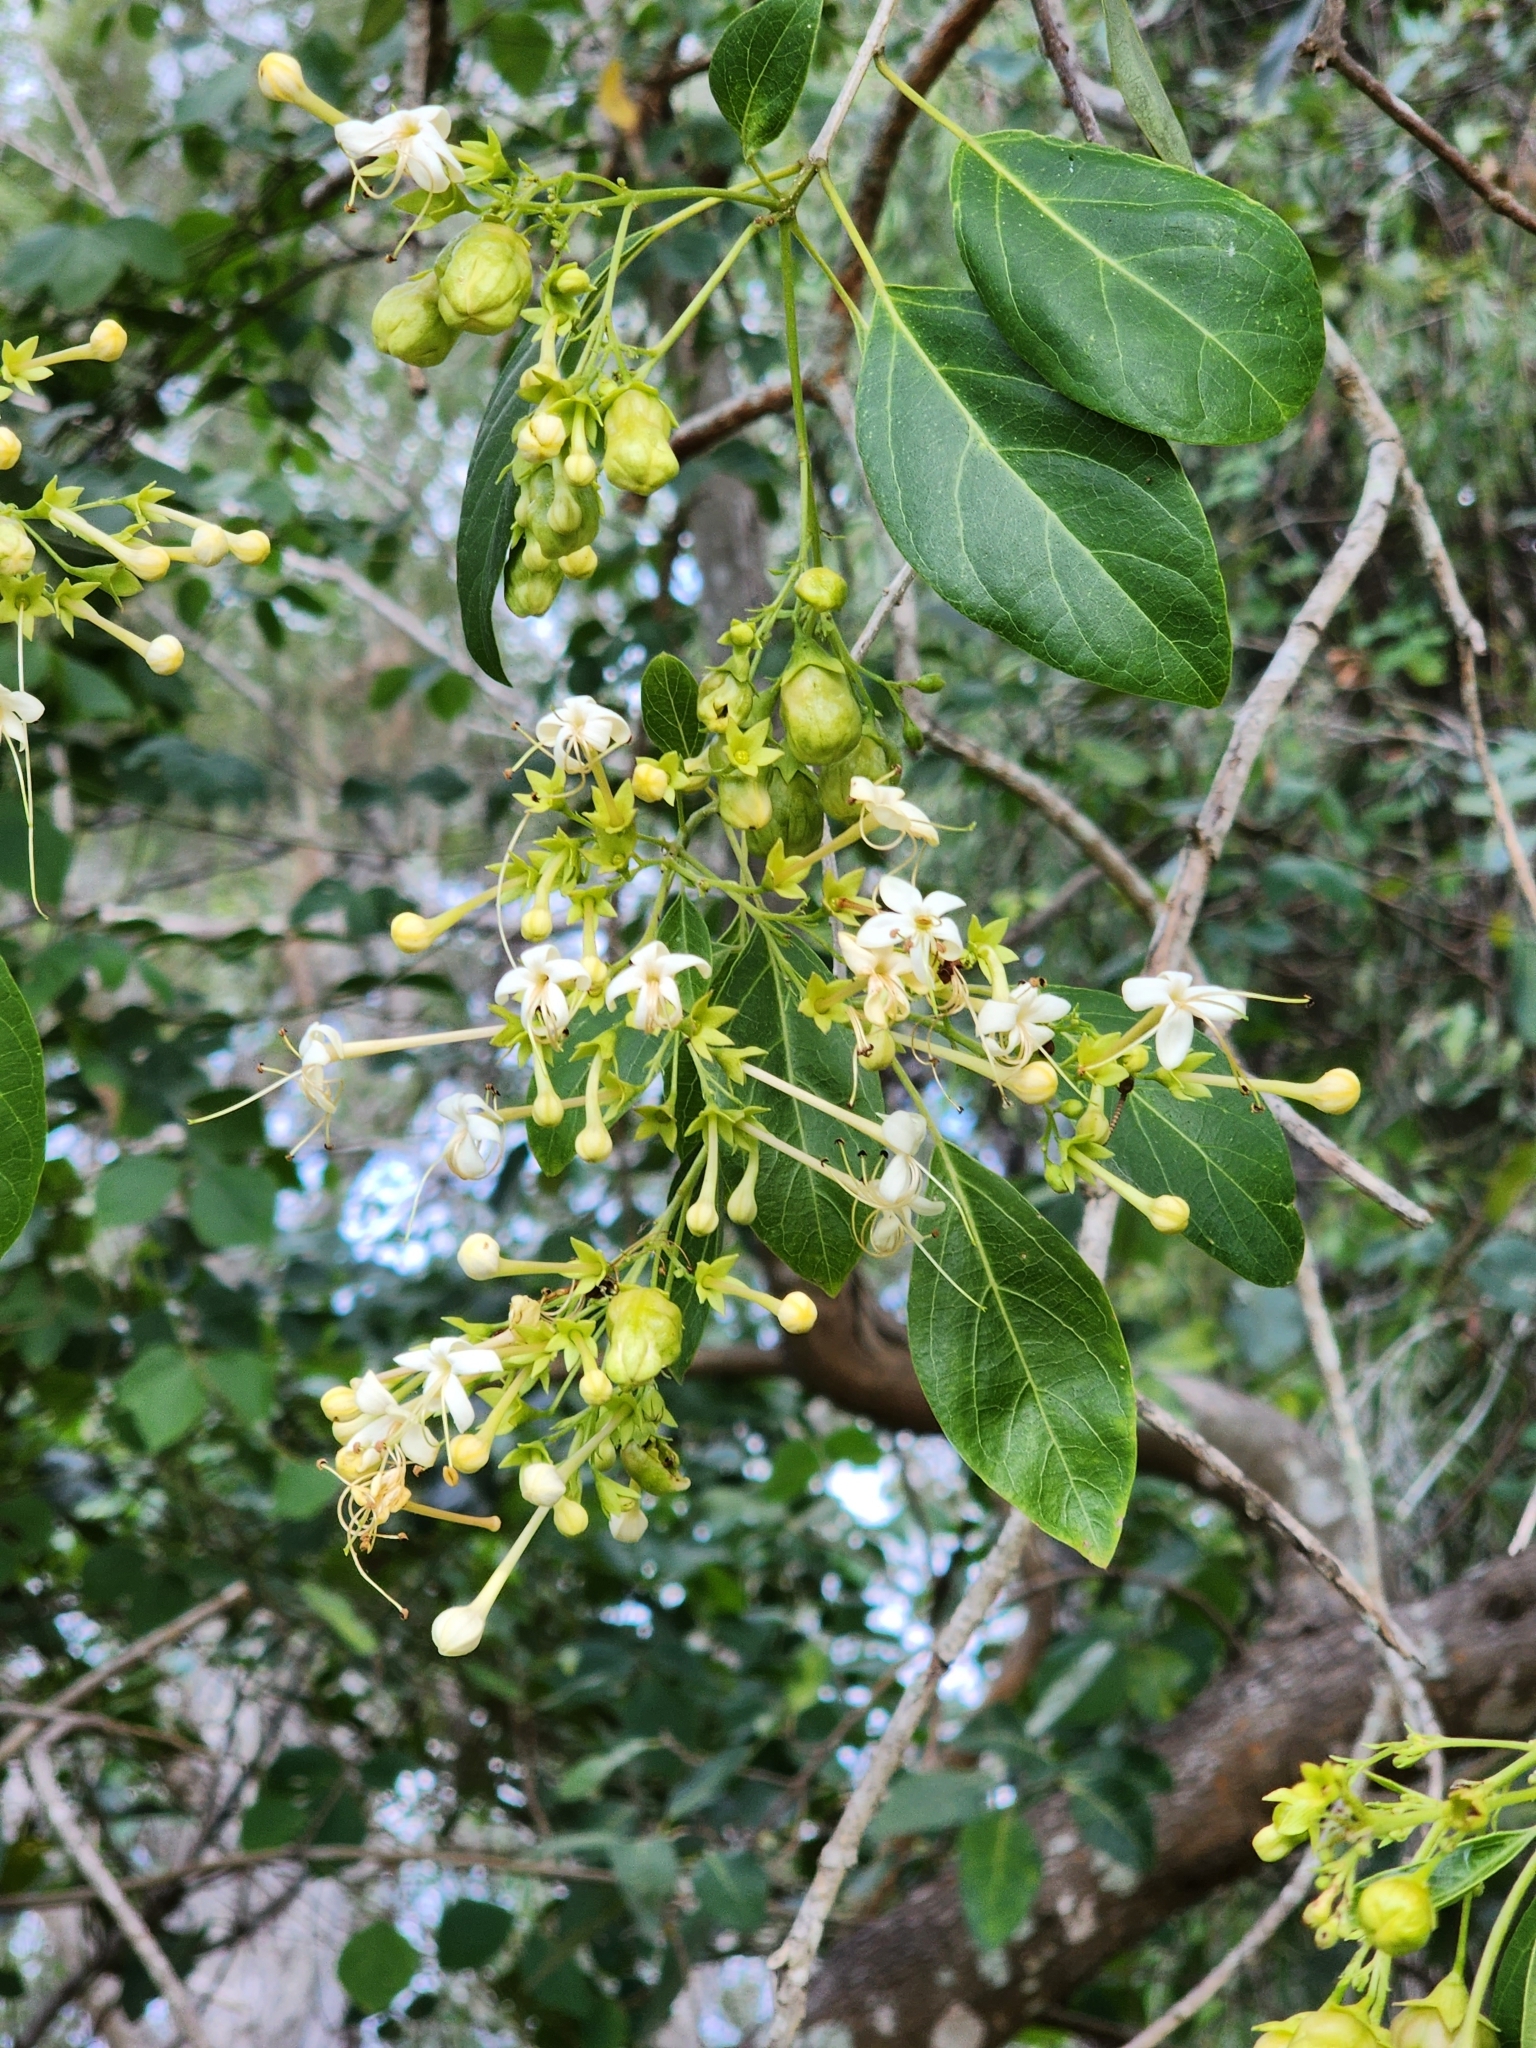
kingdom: Plantae
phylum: Tracheophyta
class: Magnoliopsida
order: Lamiales
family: Lamiaceae
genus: Clerodendrum
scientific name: Clerodendrum floribundum
